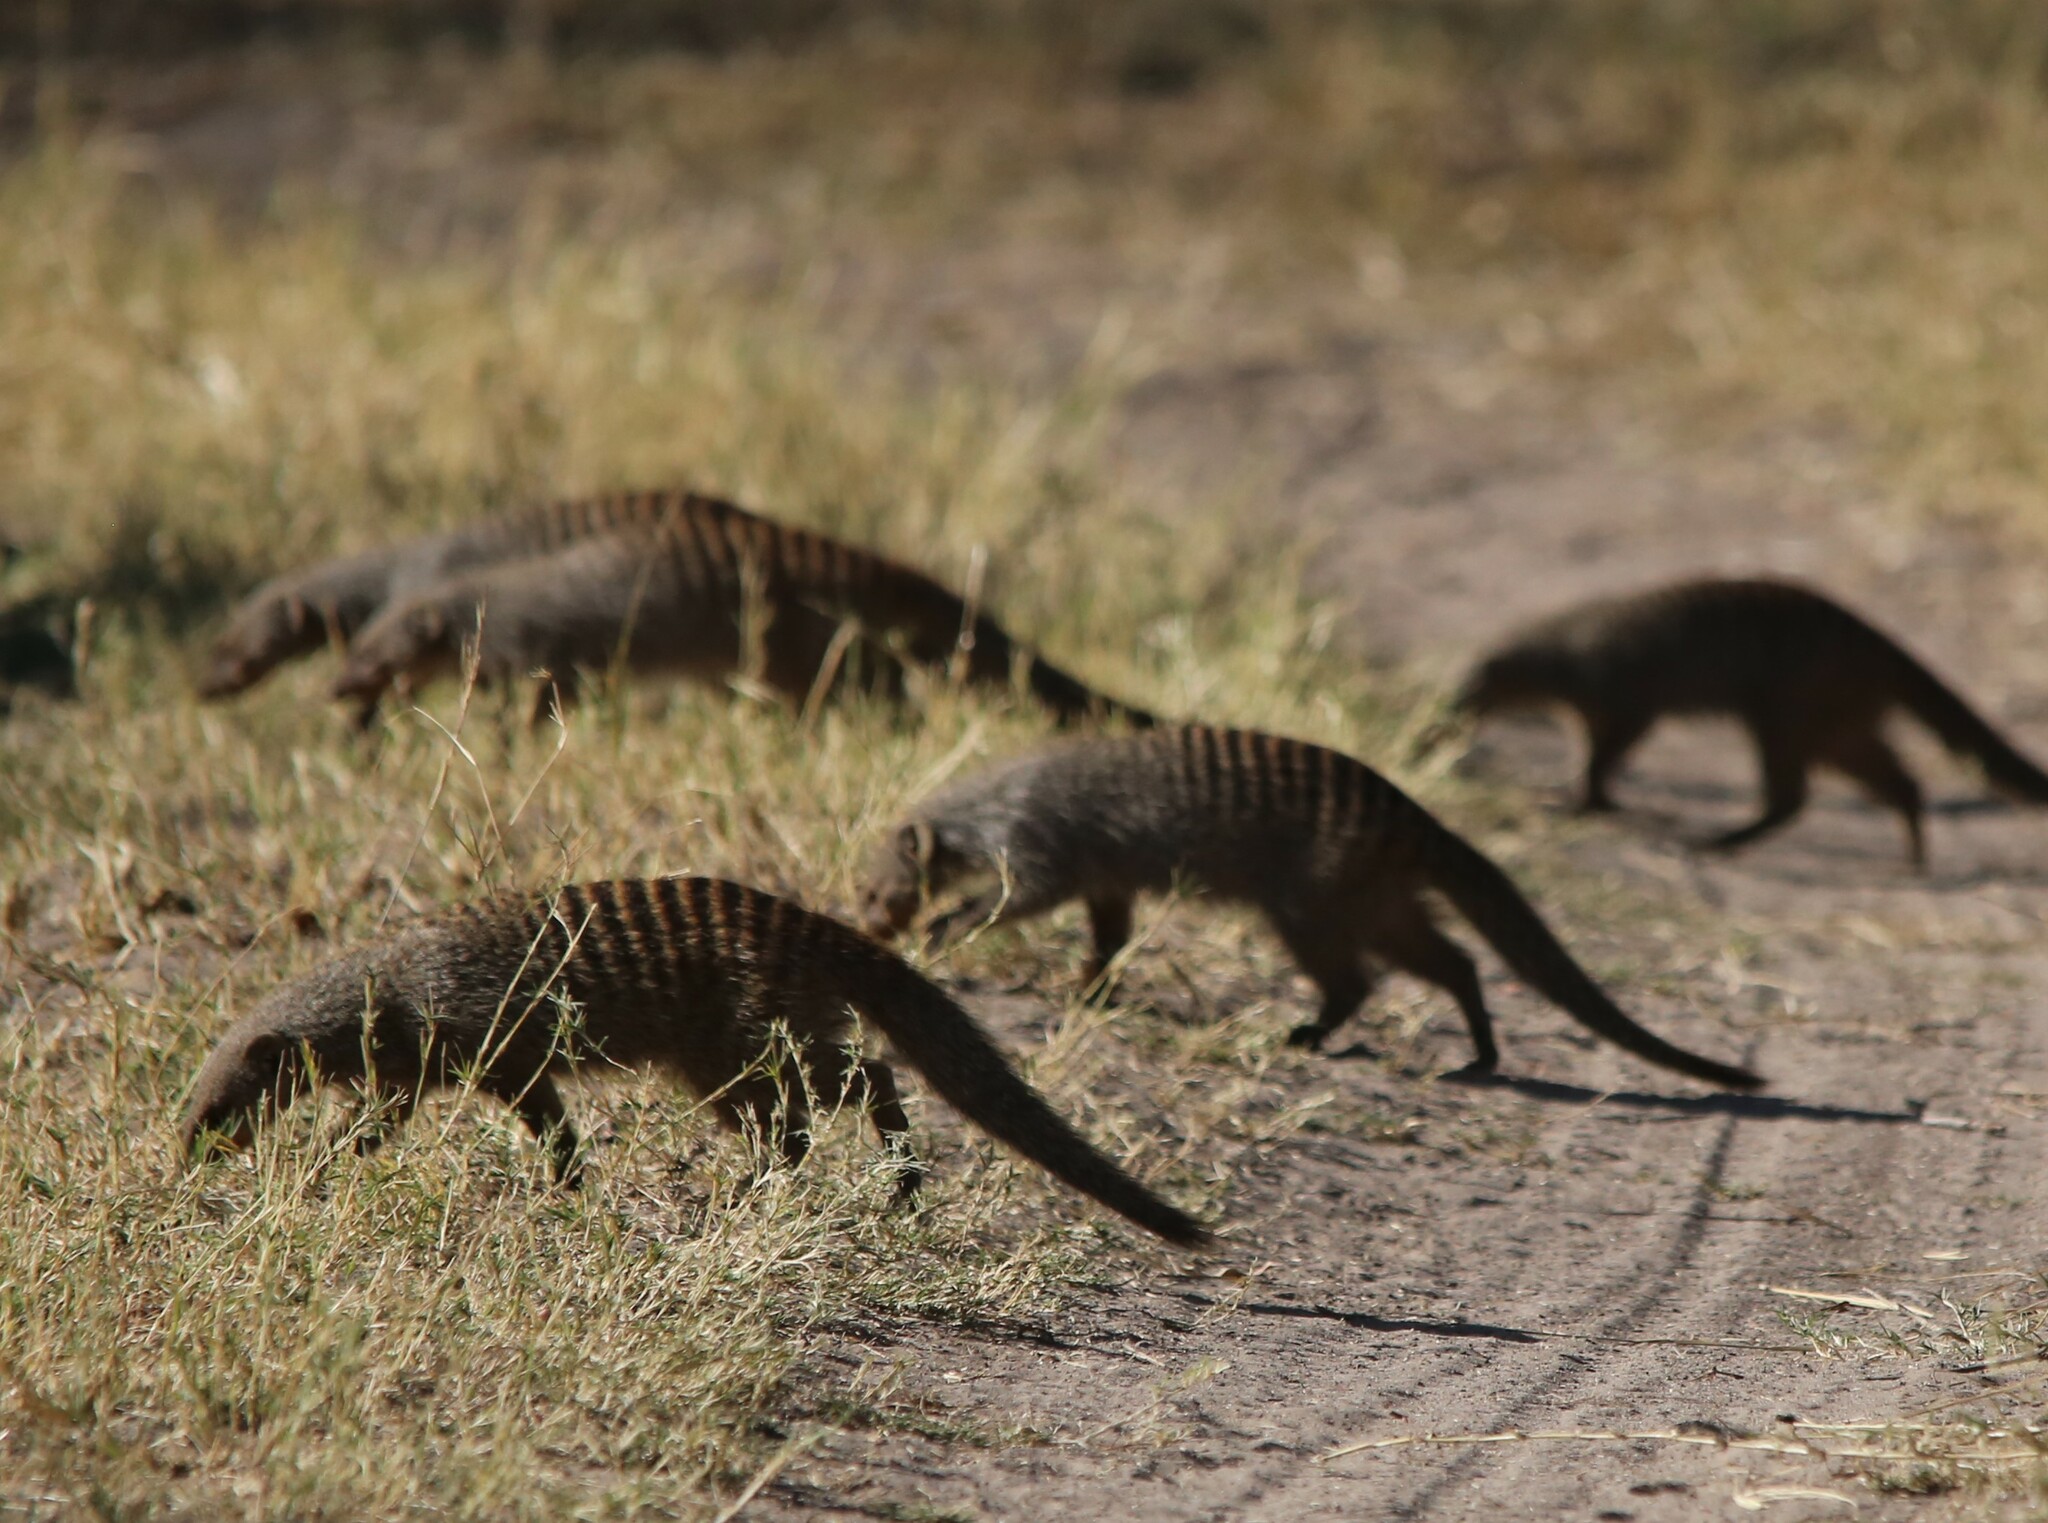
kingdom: Animalia
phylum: Chordata
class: Mammalia
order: Carnivora
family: Herpestidae
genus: Mungos
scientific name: Mungos mungo
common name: Banded mongoose
